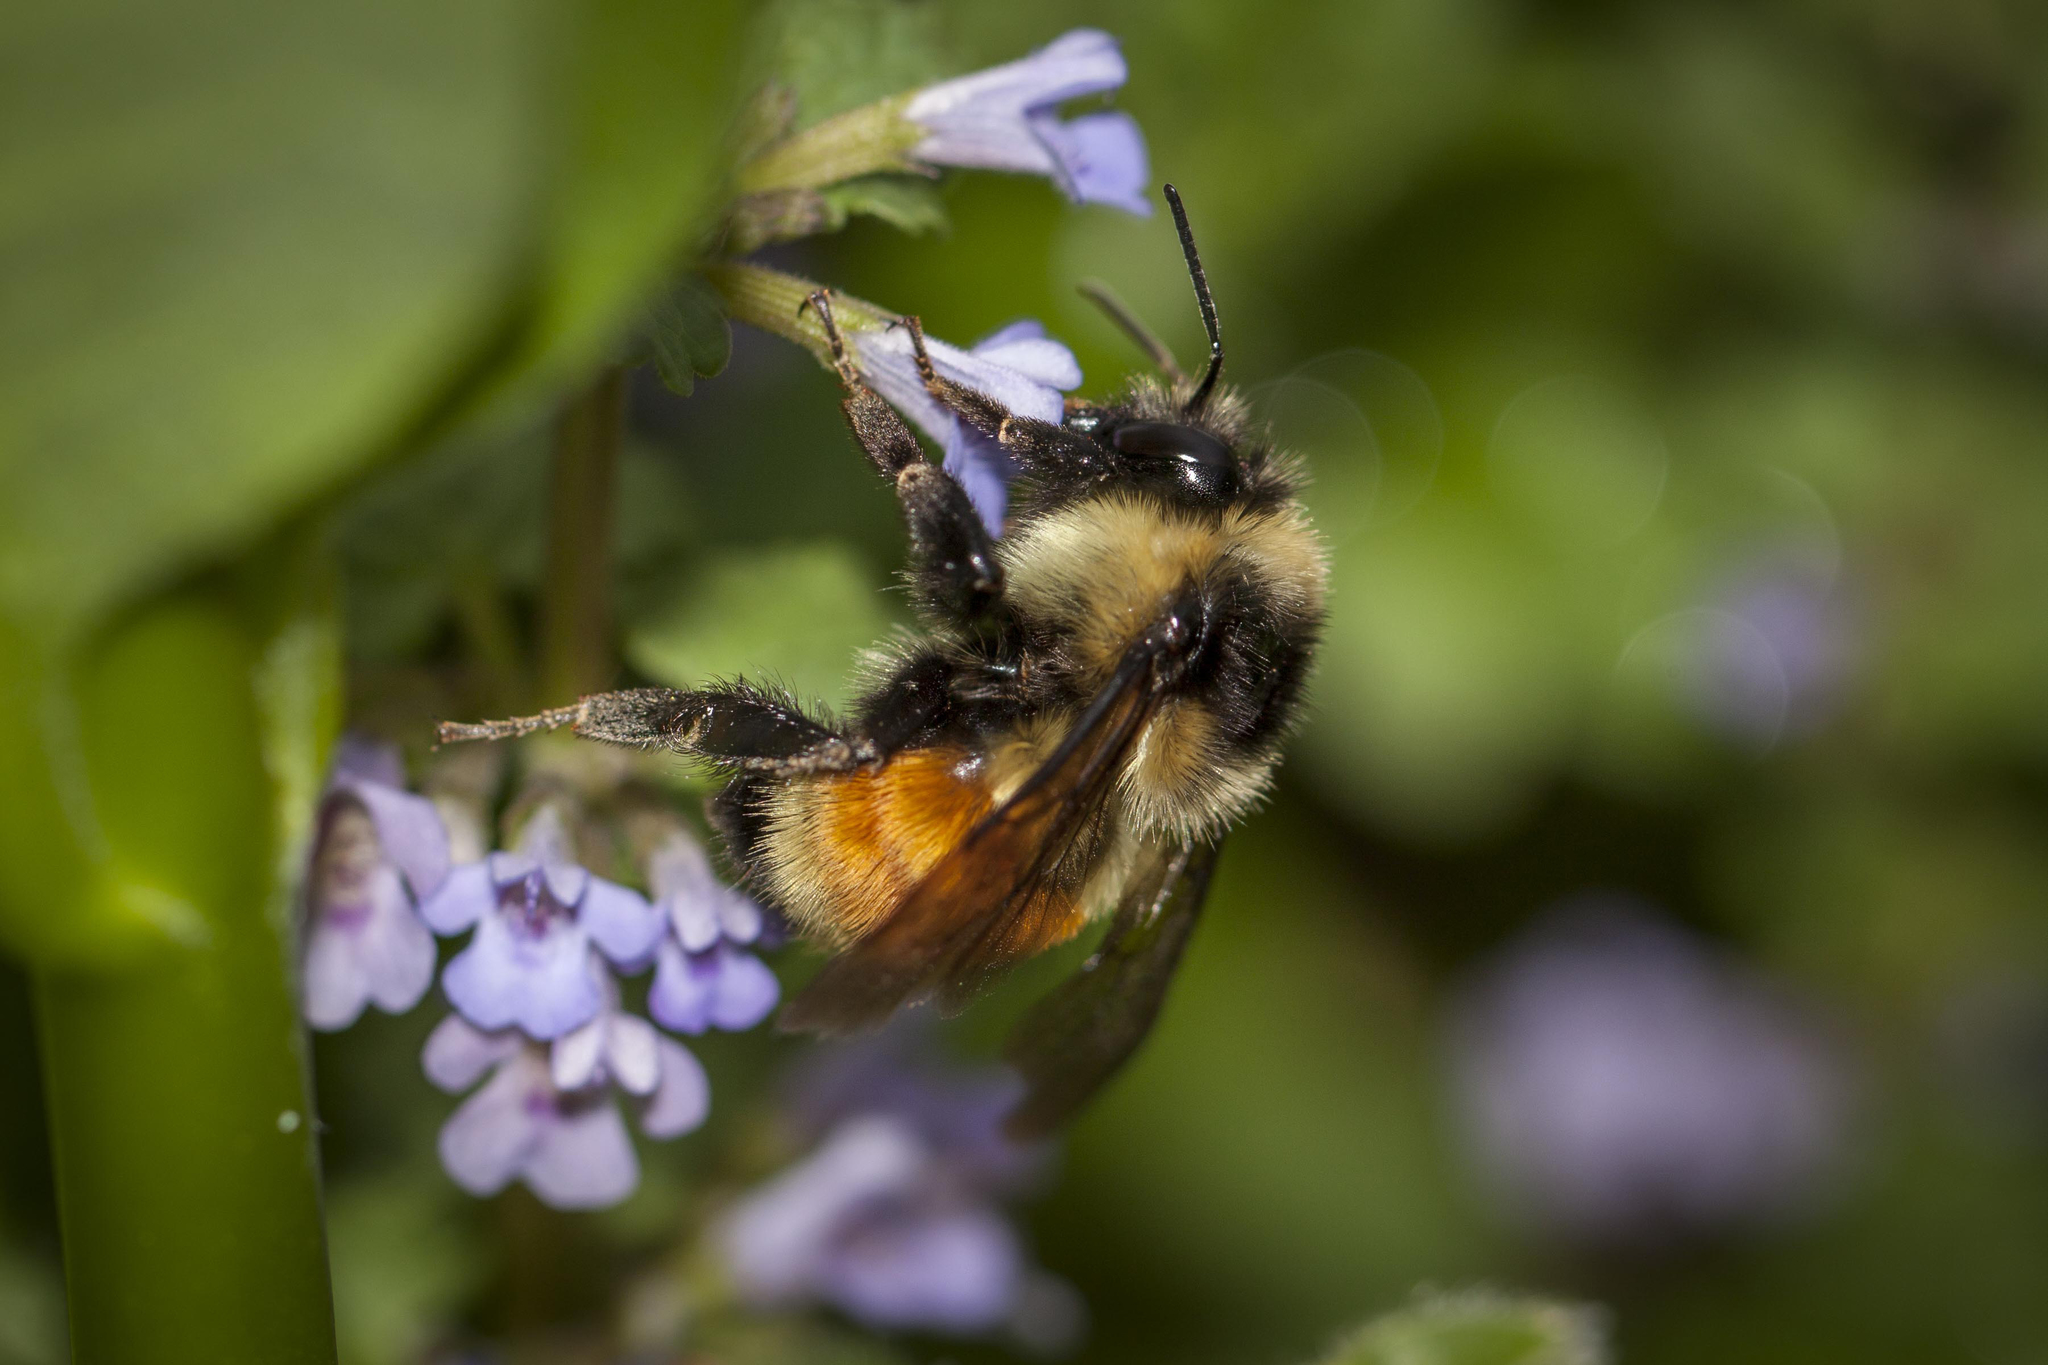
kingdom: Animalia
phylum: Arthropoda
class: Insecta
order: Hymenoptera
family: Apidae
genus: Bombus
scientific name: Bombus ternarius
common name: Tri-colored bumble bee
